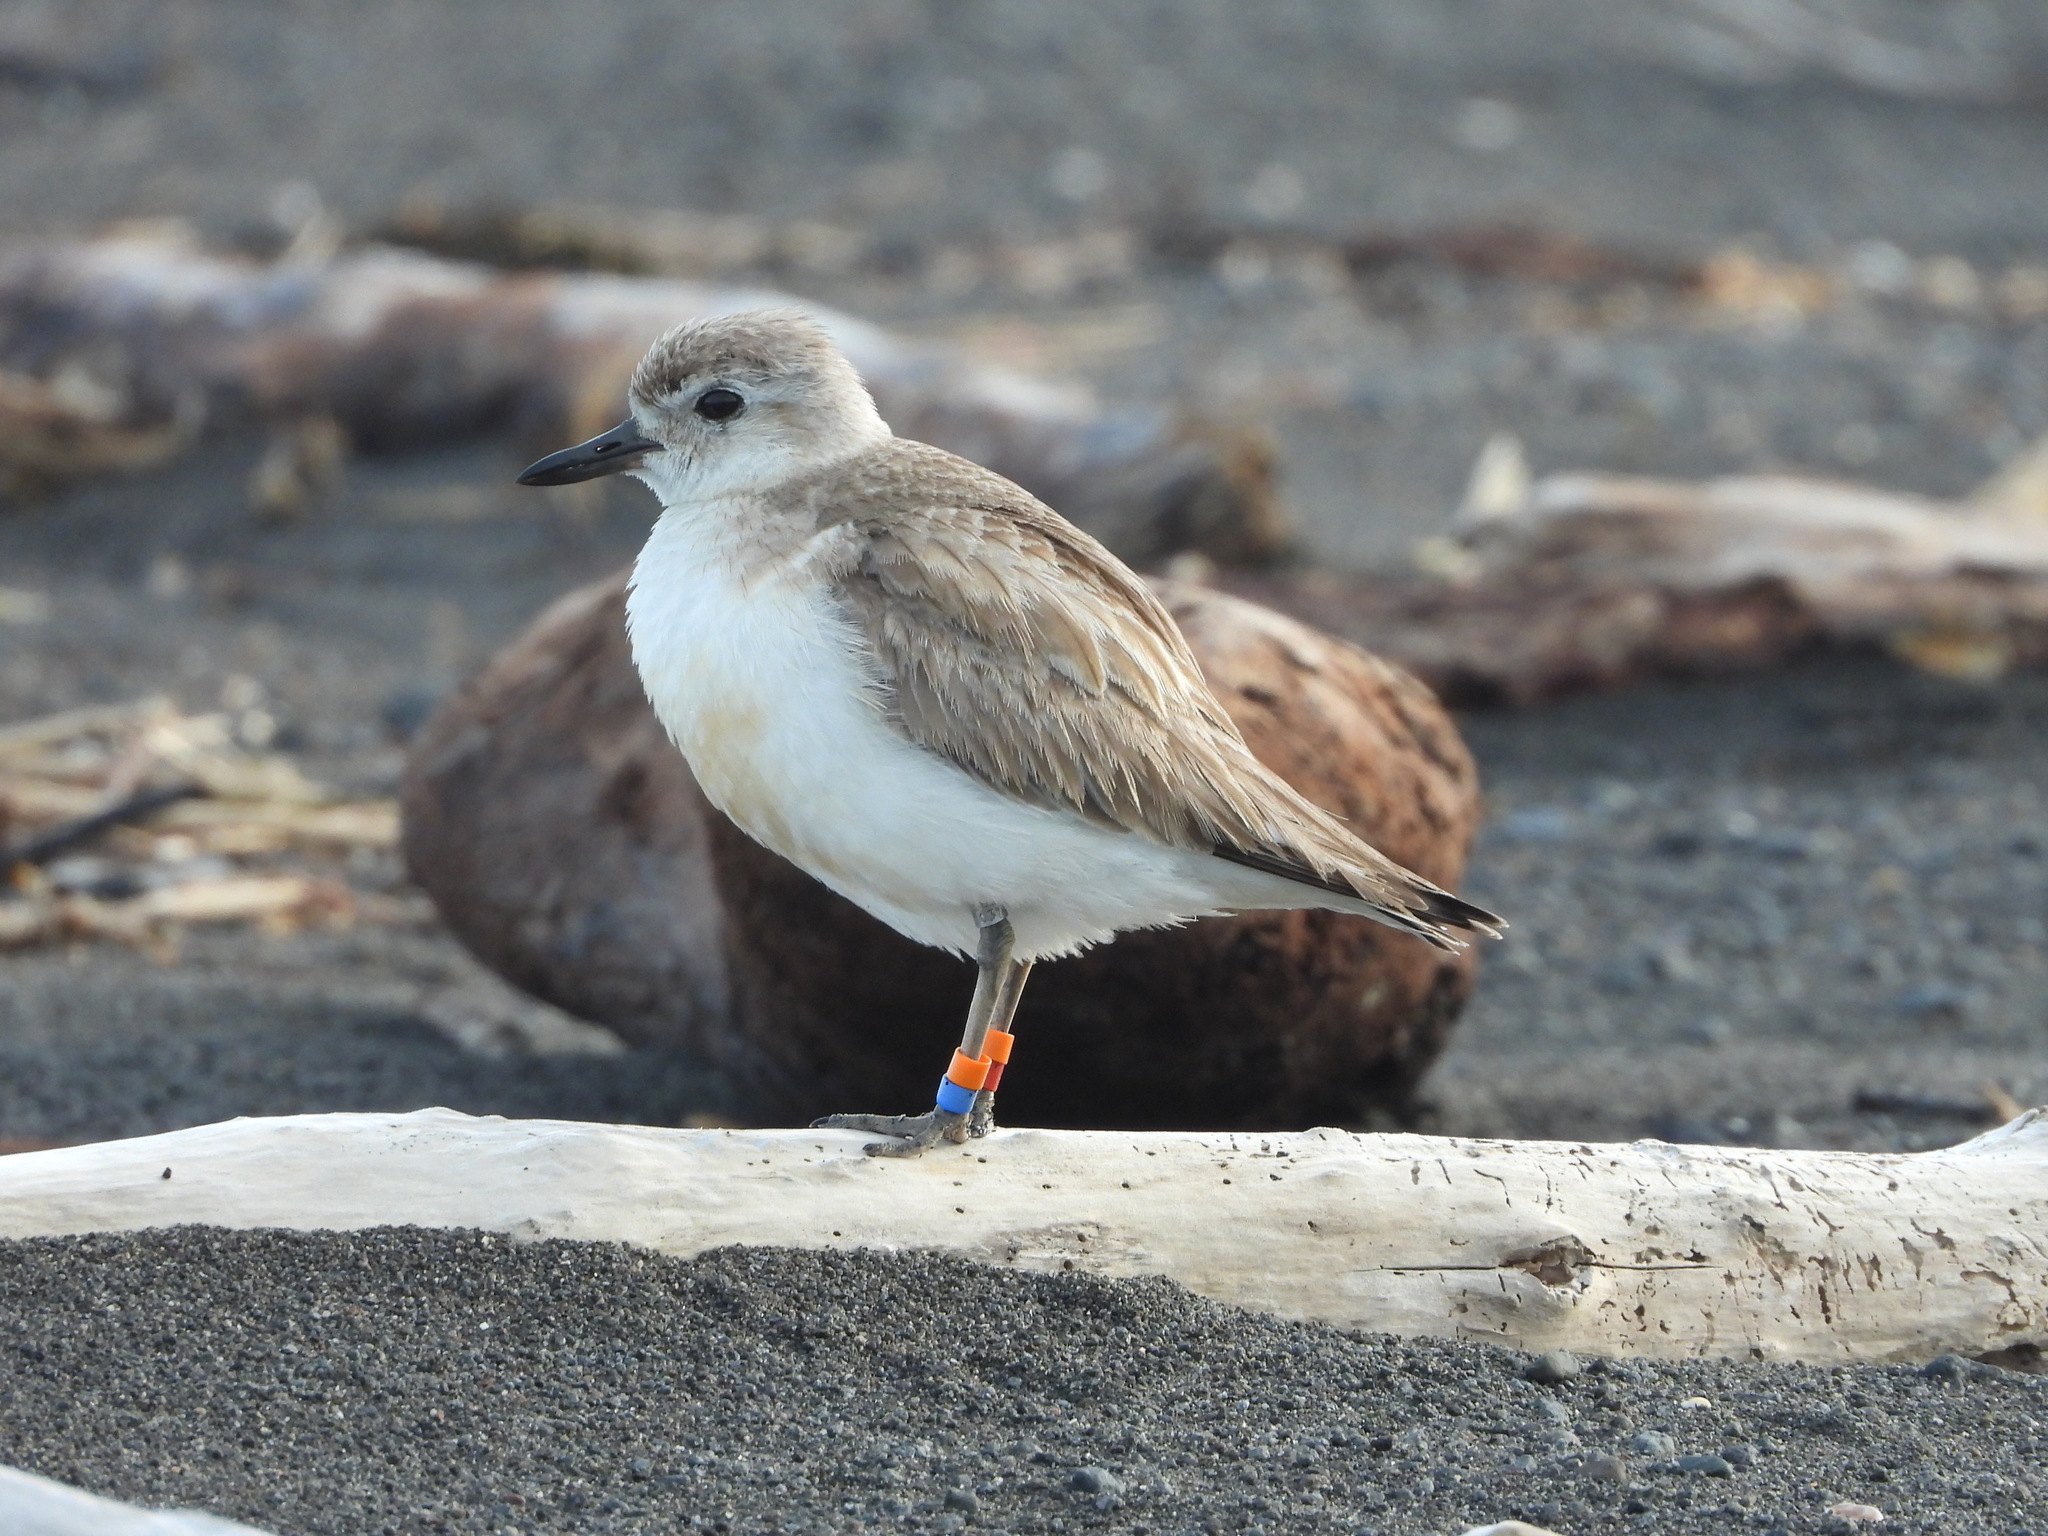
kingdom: Animalia
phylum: Chordata
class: Aves
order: Charadriiformes
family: Charadriidae
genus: Anarhynchus
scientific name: Anarhynchus
